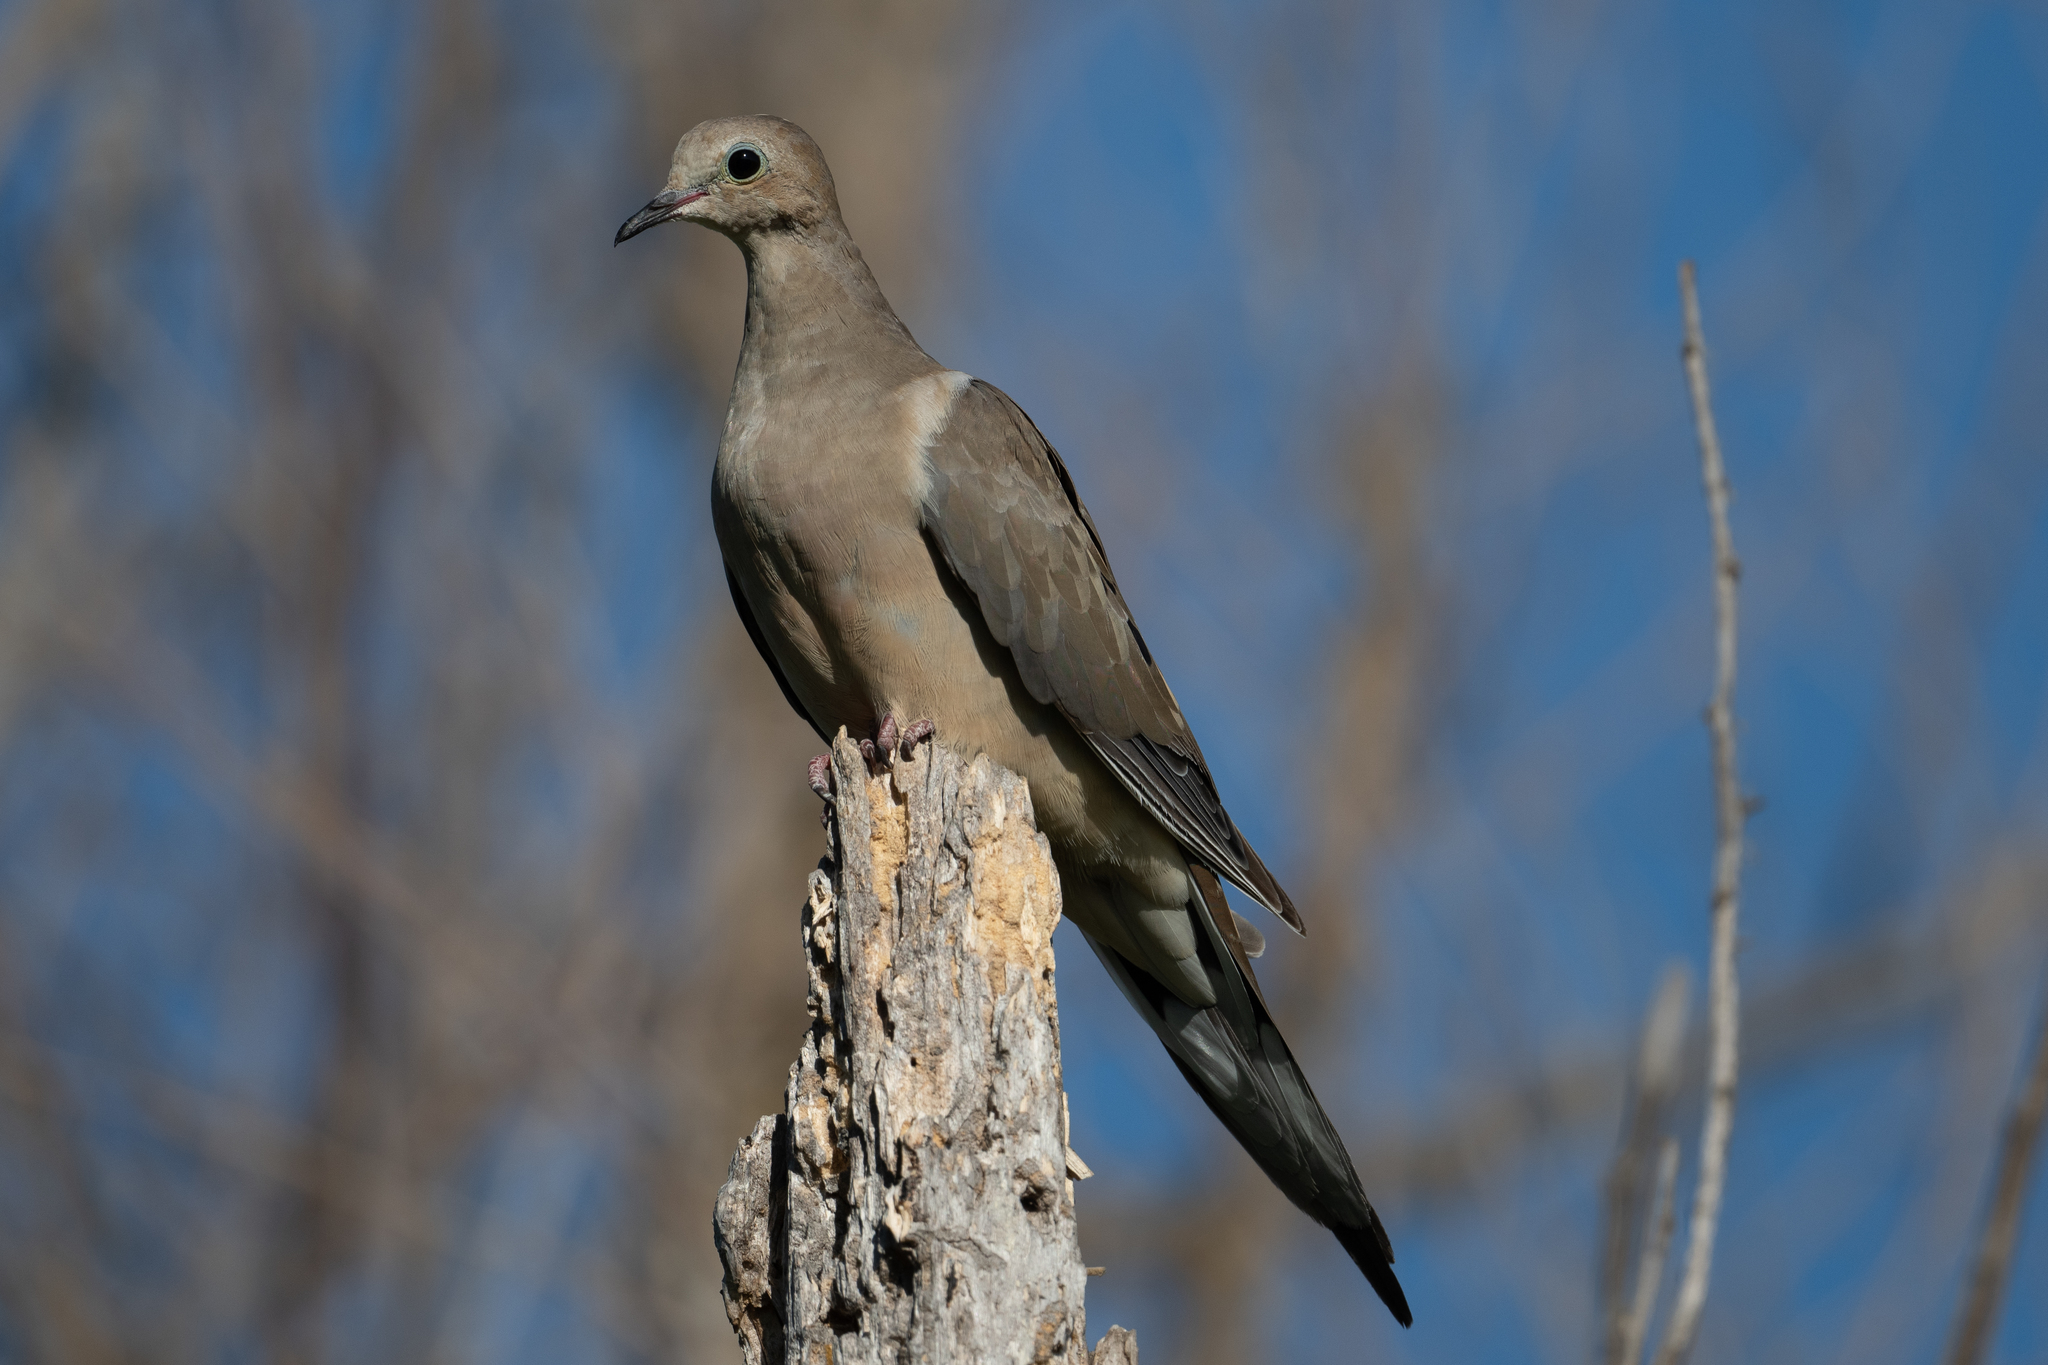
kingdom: Animalia
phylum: Chordata
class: Aves
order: Columbiformes
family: Columbidae
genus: Zenaida
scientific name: Zenaida macroura
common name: Mourning dove
